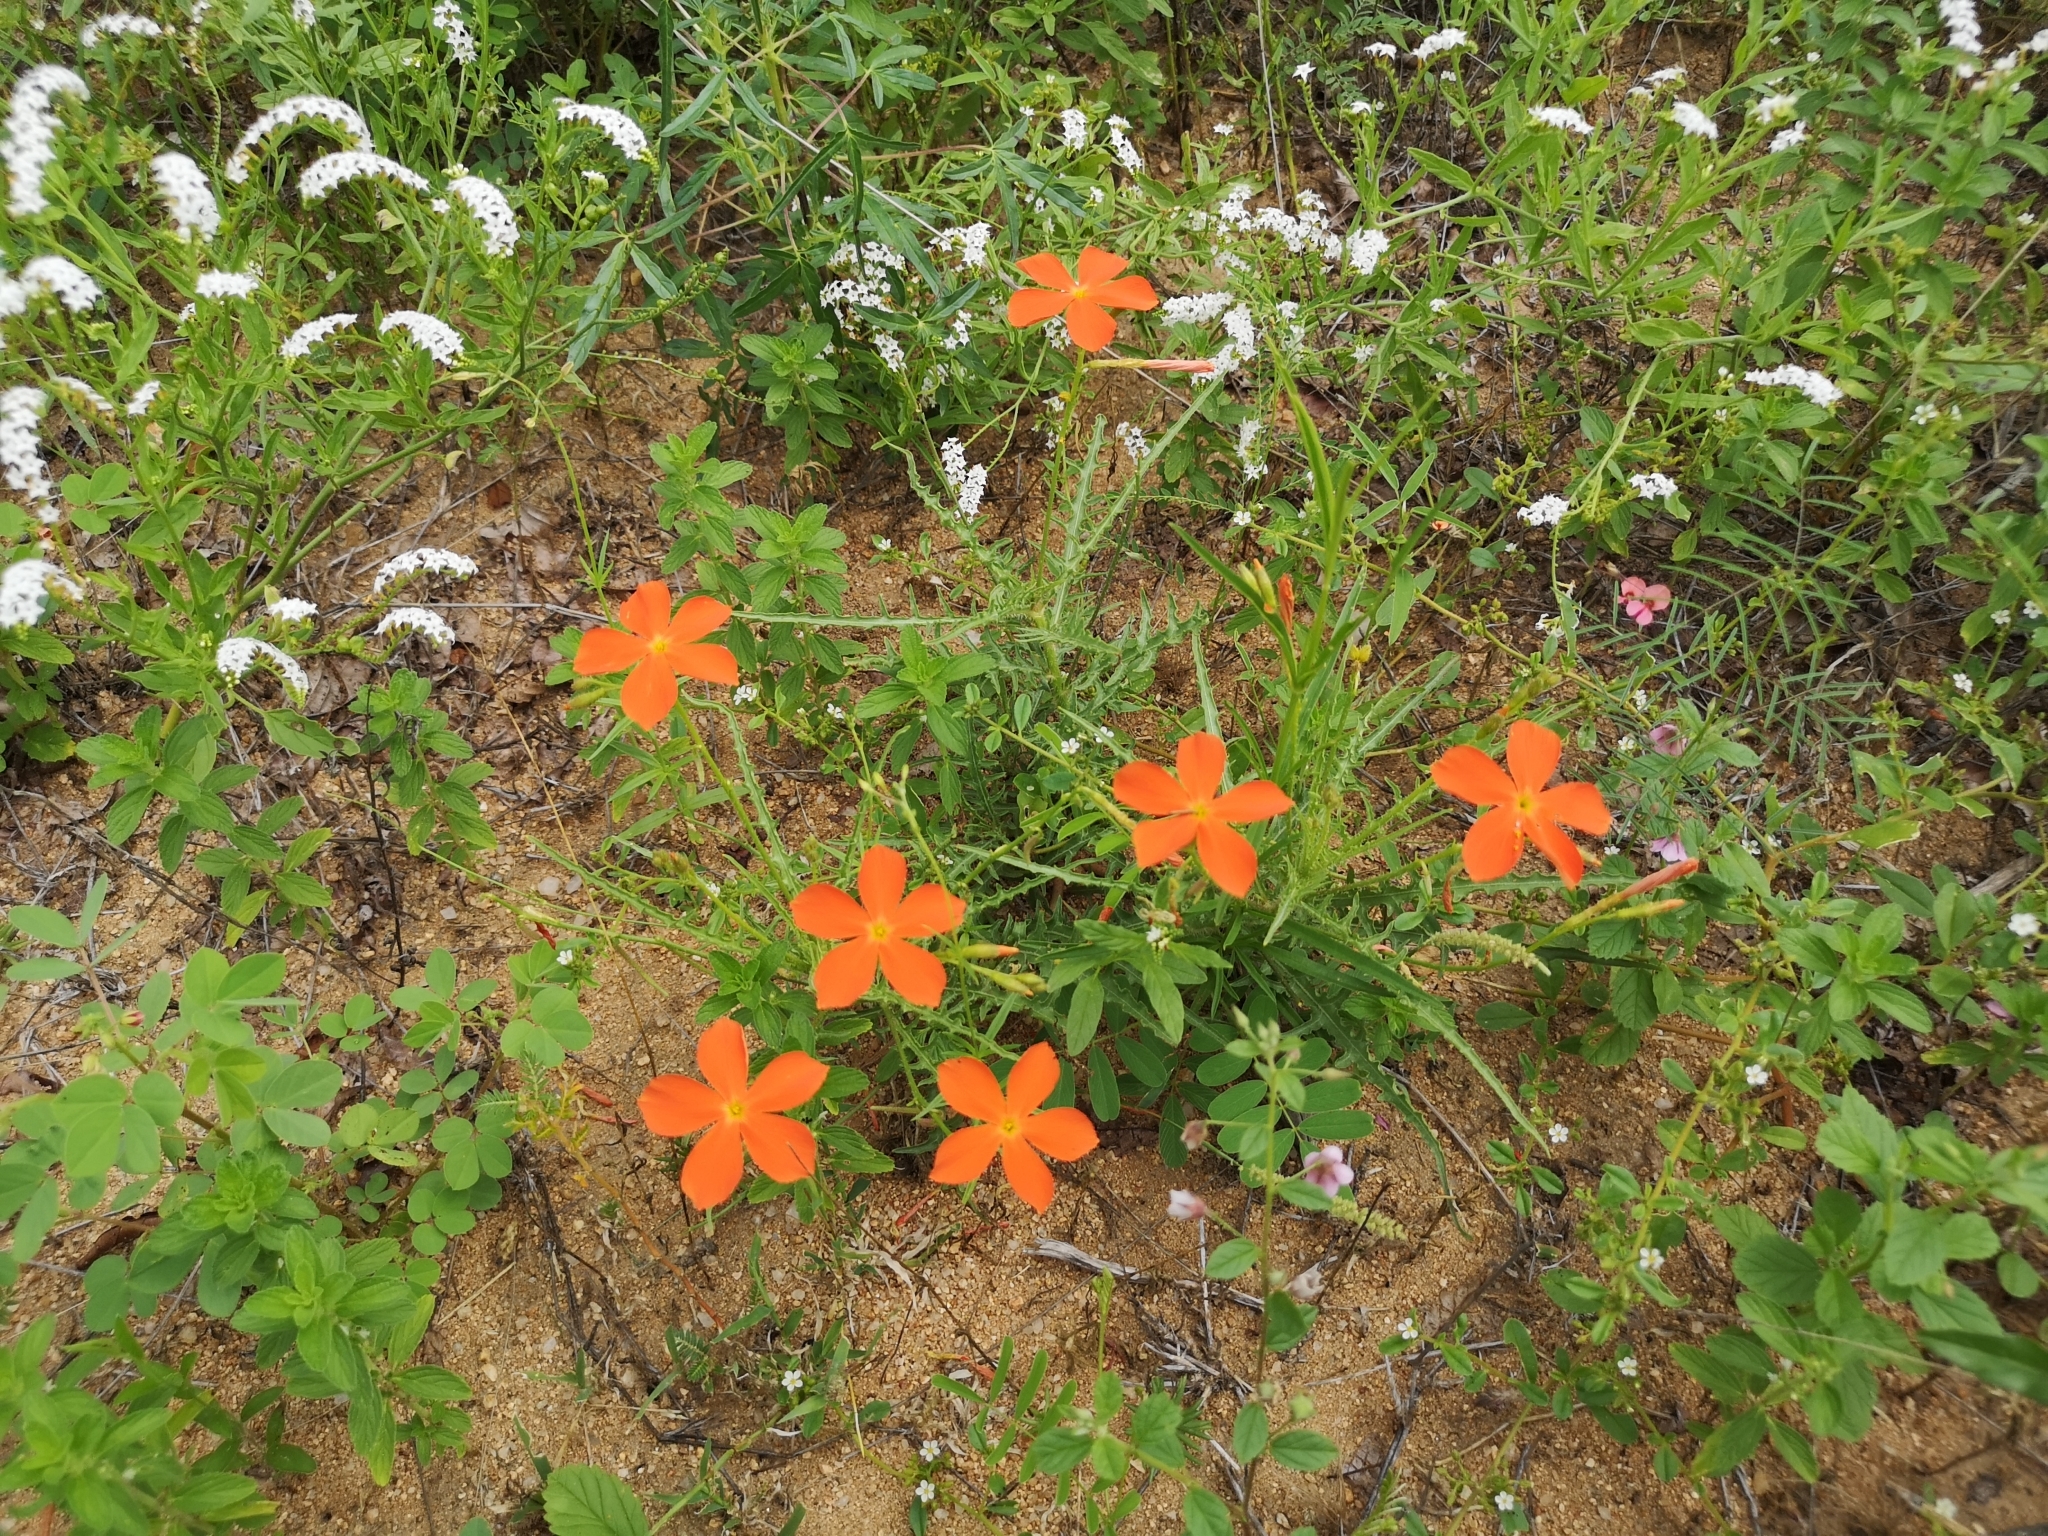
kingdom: Plantae
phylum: Tracheophyta
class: Magnoliopsida
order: Malpighiales
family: Turneraceae
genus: Tricliceras
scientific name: Tricliceras lacerata
